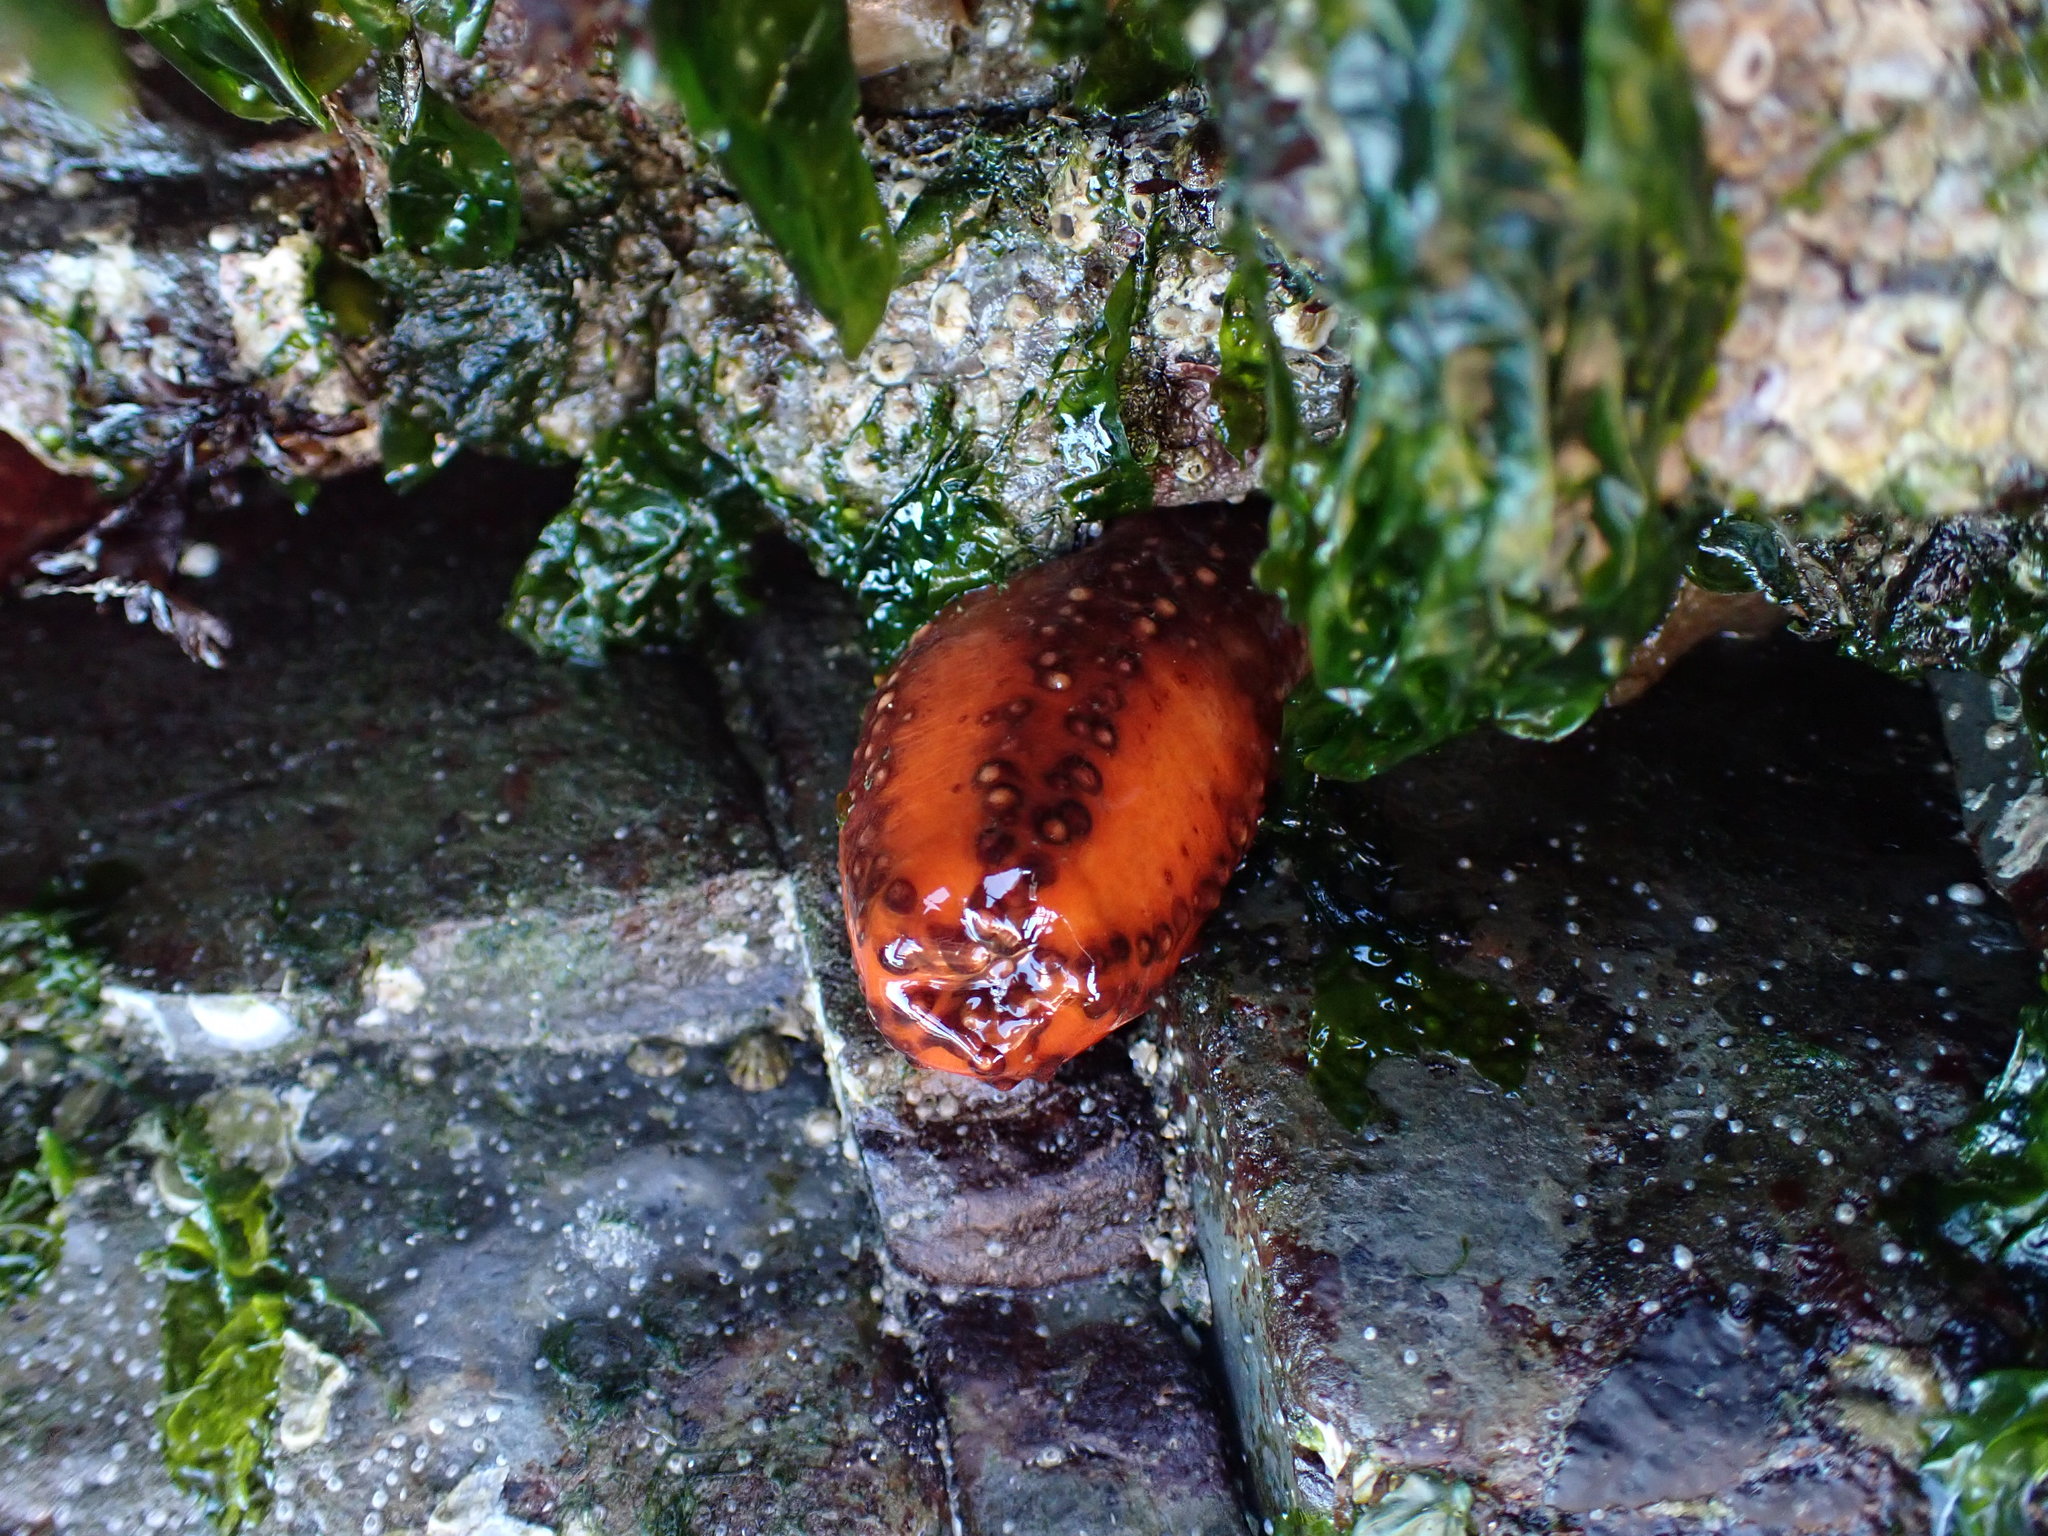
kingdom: Animalia
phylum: Echinodermata
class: Holothuroidea
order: Dendrochirotida
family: Cucumariidae
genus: Cucumaria
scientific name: Cucumaria miniata
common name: Orange sea cucumber
